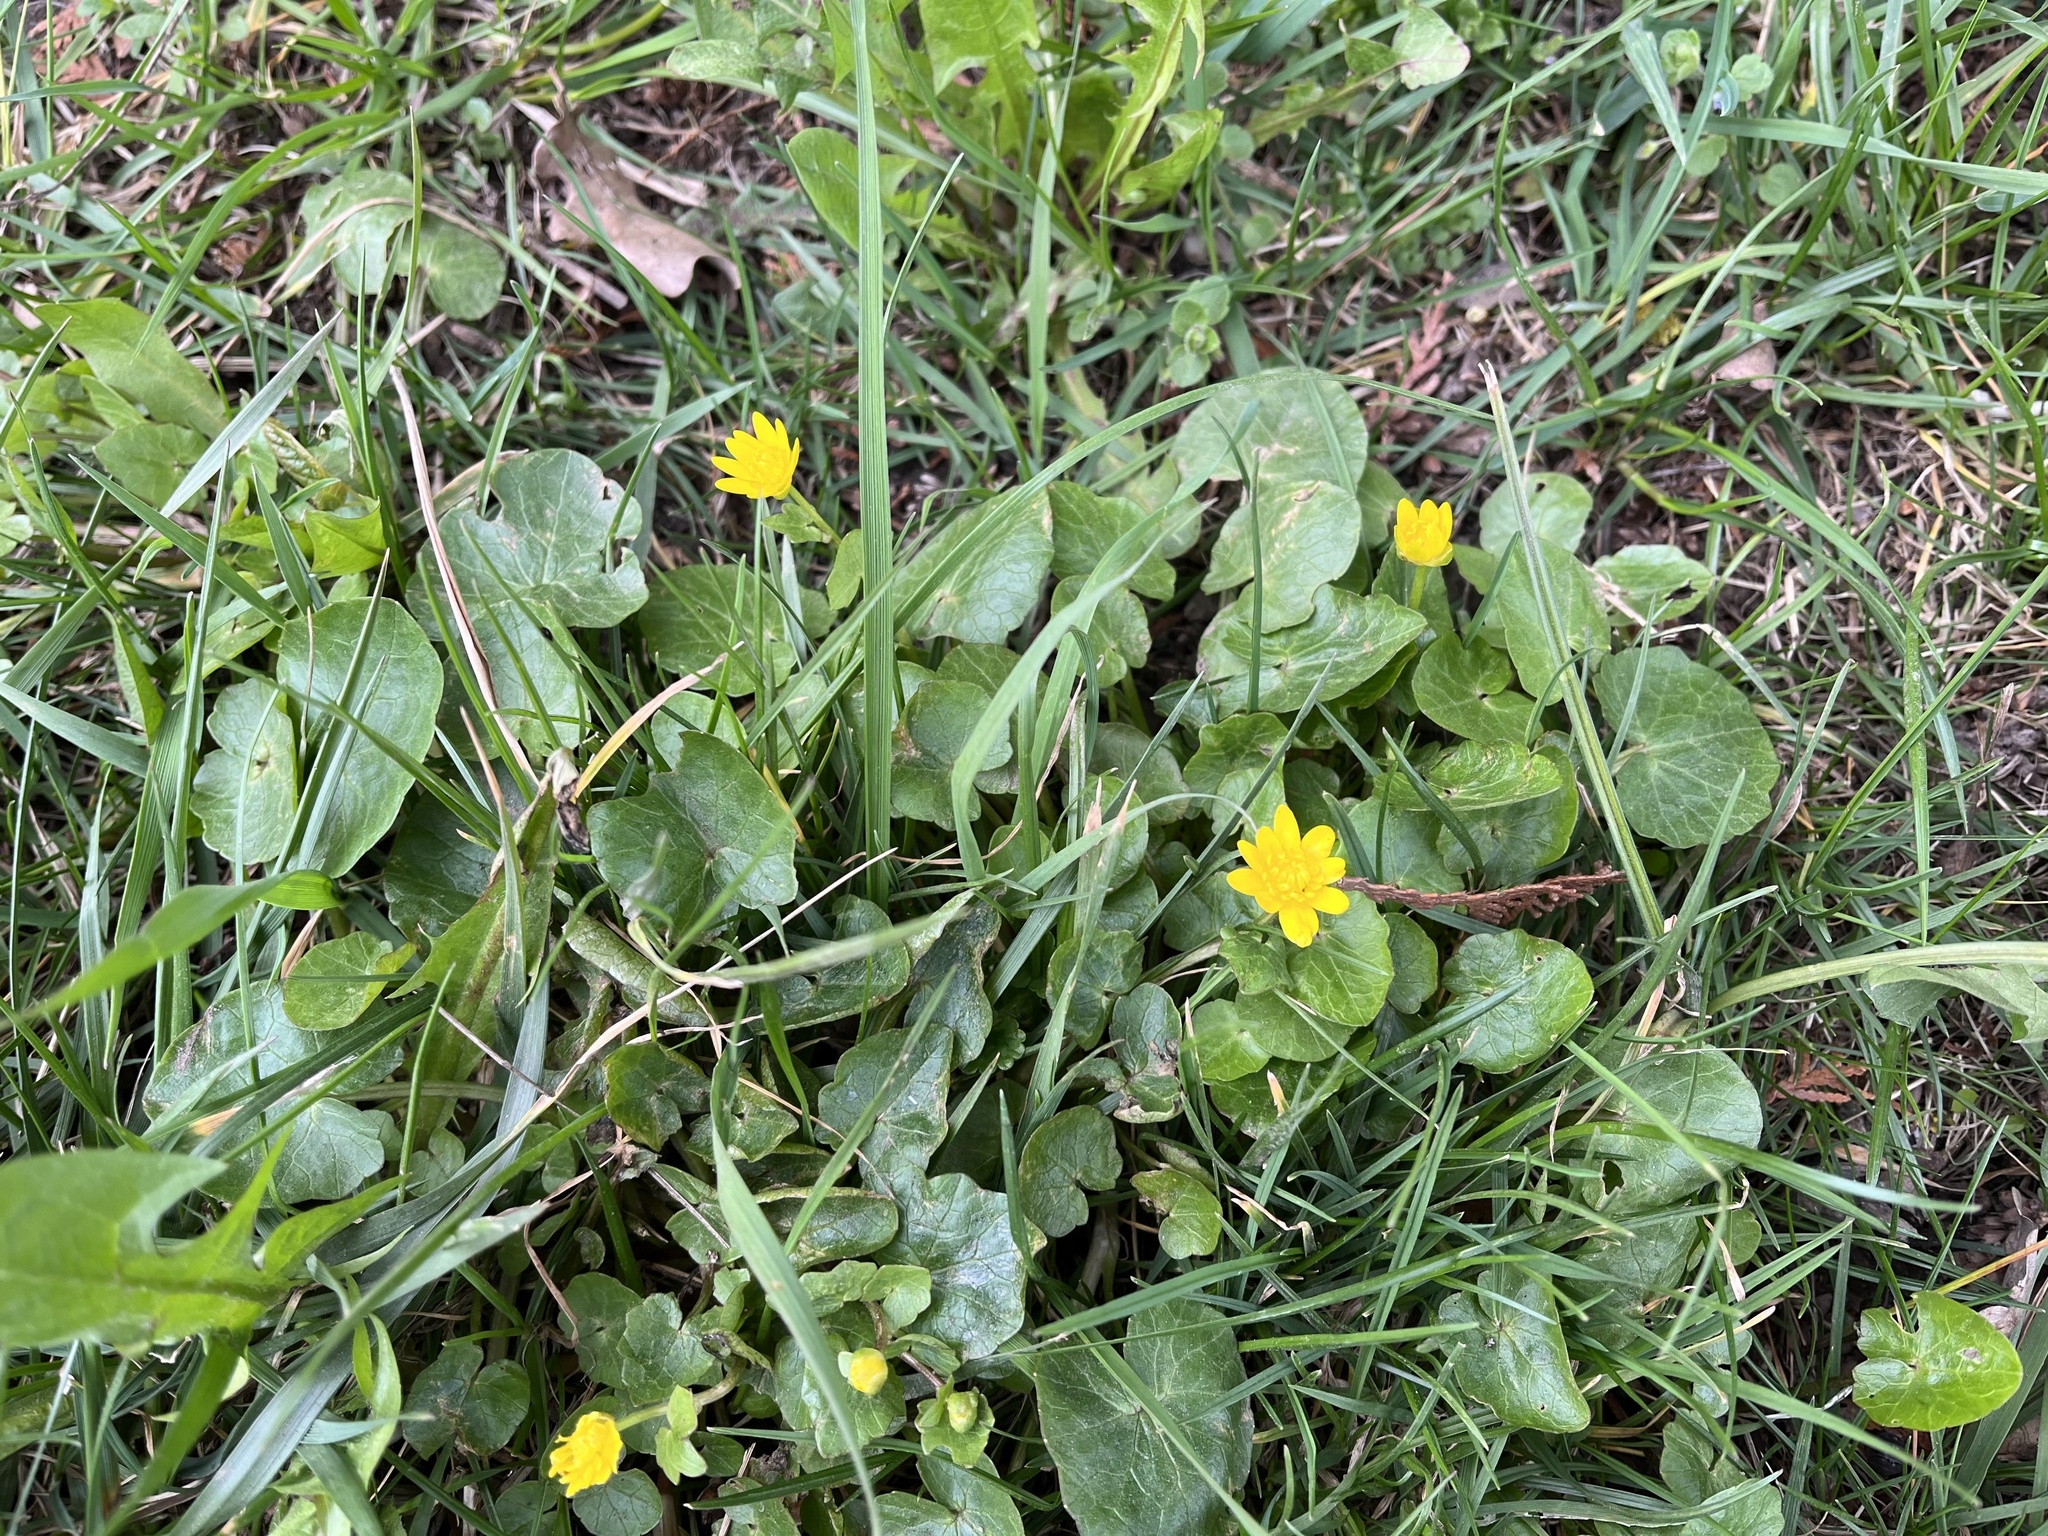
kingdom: Plantae
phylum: Tracheophyta
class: Magnoliopsida
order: Ranunculales
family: Ranunculaceae
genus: Ficaria
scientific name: Ficaria verna
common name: Lesser celandine
